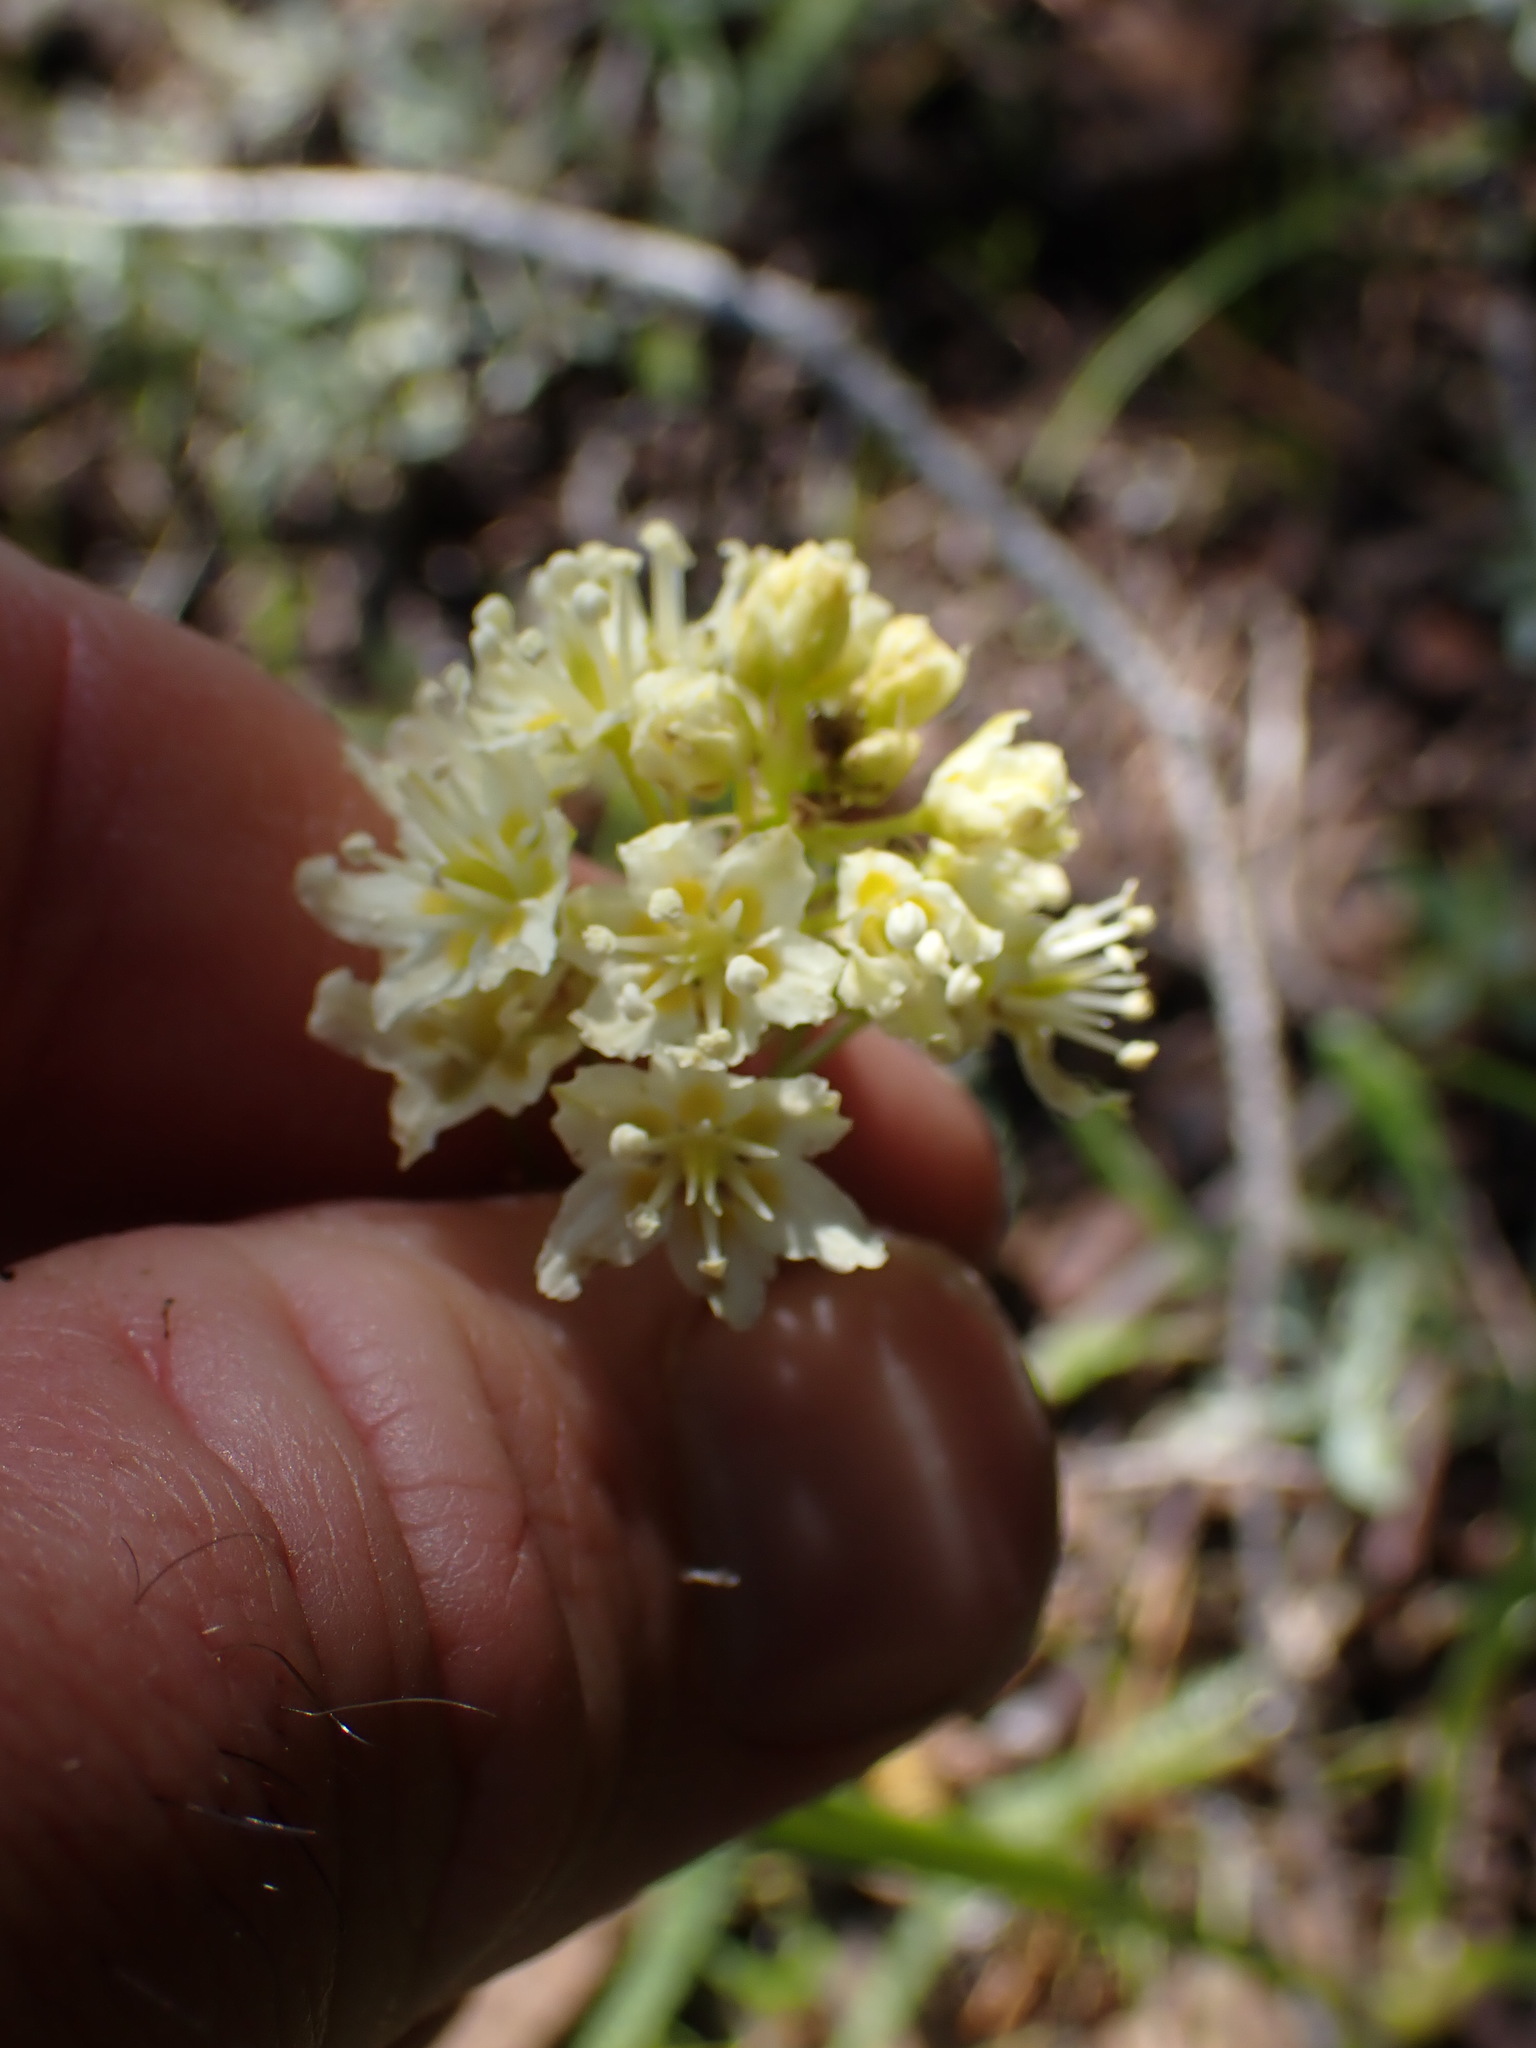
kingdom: Plantae
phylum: Tracheophyta
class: Liliopsida
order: Liliales
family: Melanthiaceae
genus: Toxicoscordion
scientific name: Toxicoscordion venenosum
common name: Meadow death camas
